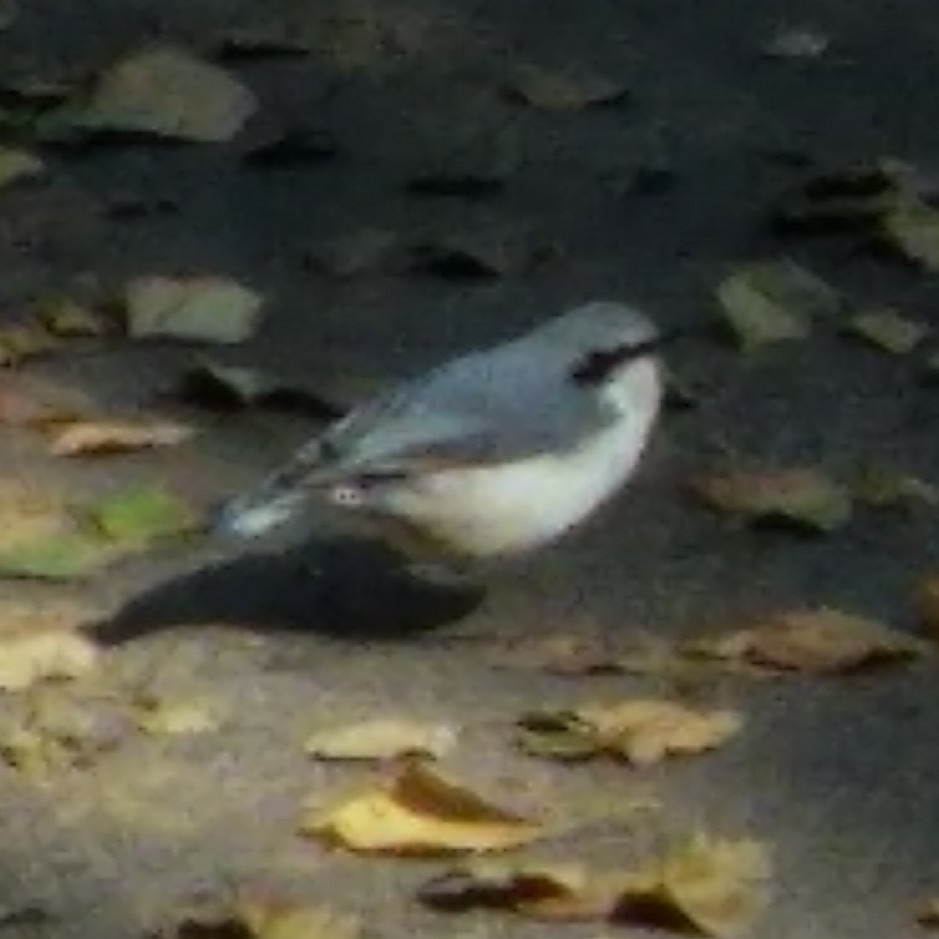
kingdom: Animalia
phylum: Chordata
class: Aves
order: Passeriformes
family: Sittidae
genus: Sitta
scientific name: Sitta europaea
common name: Eurasian nuthatch
